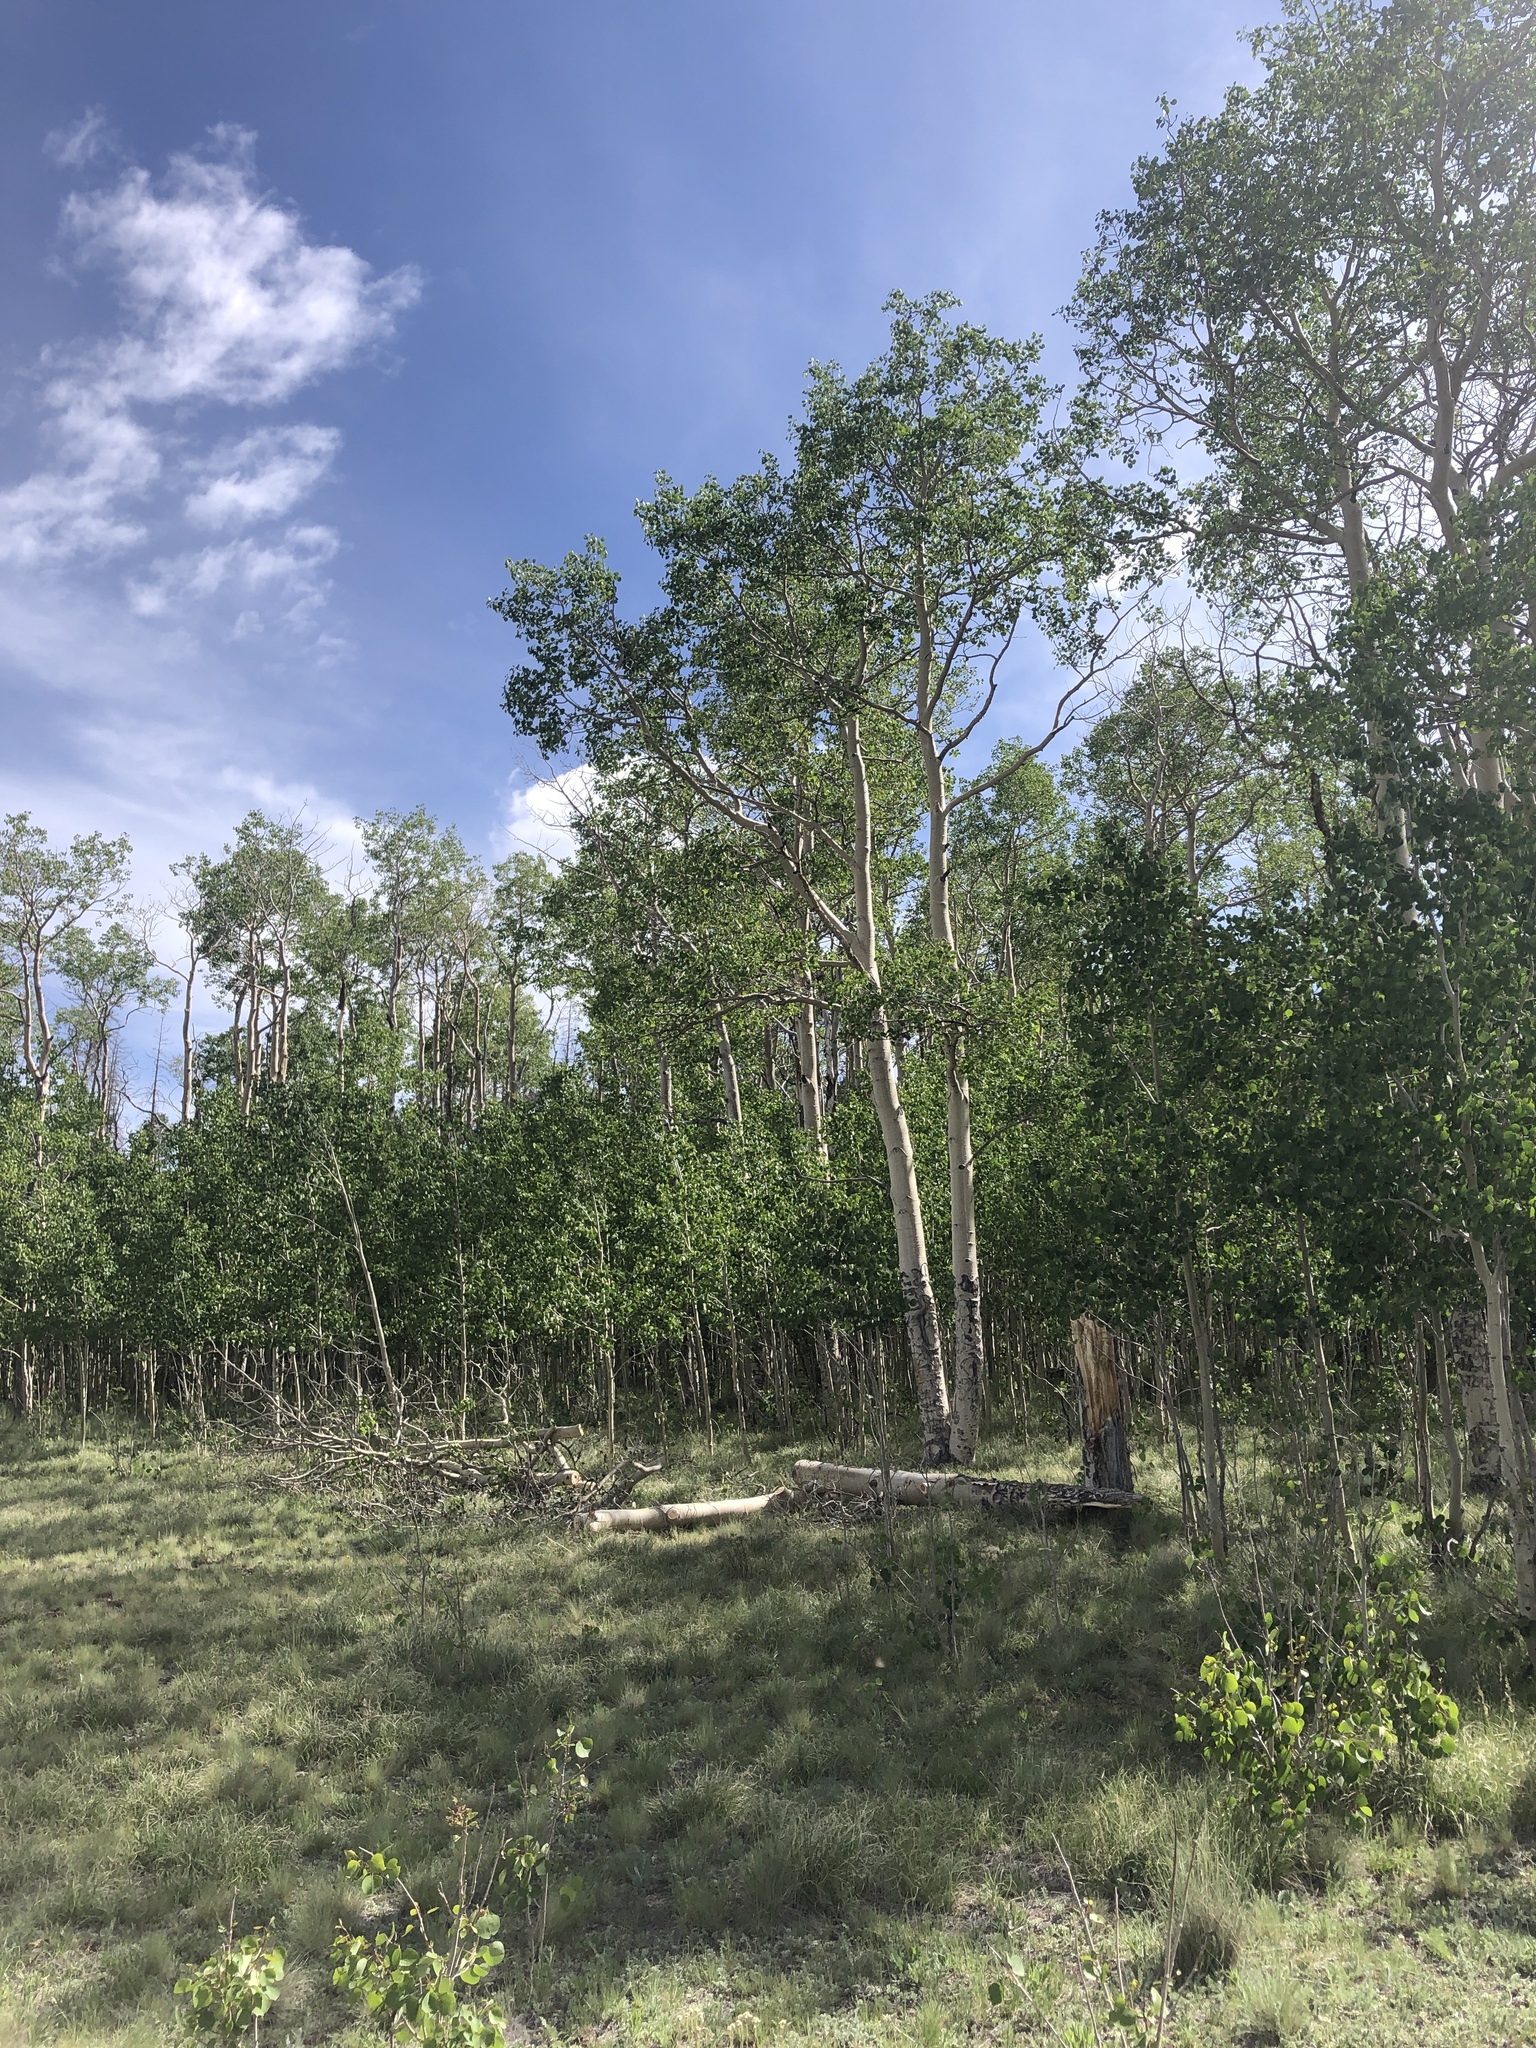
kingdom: Plantae
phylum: Tracheophyta
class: Magnoliopsida
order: Malpighiales
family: Salicaceae
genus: Populus
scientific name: Populus tremuloides
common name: Quaking aspen
